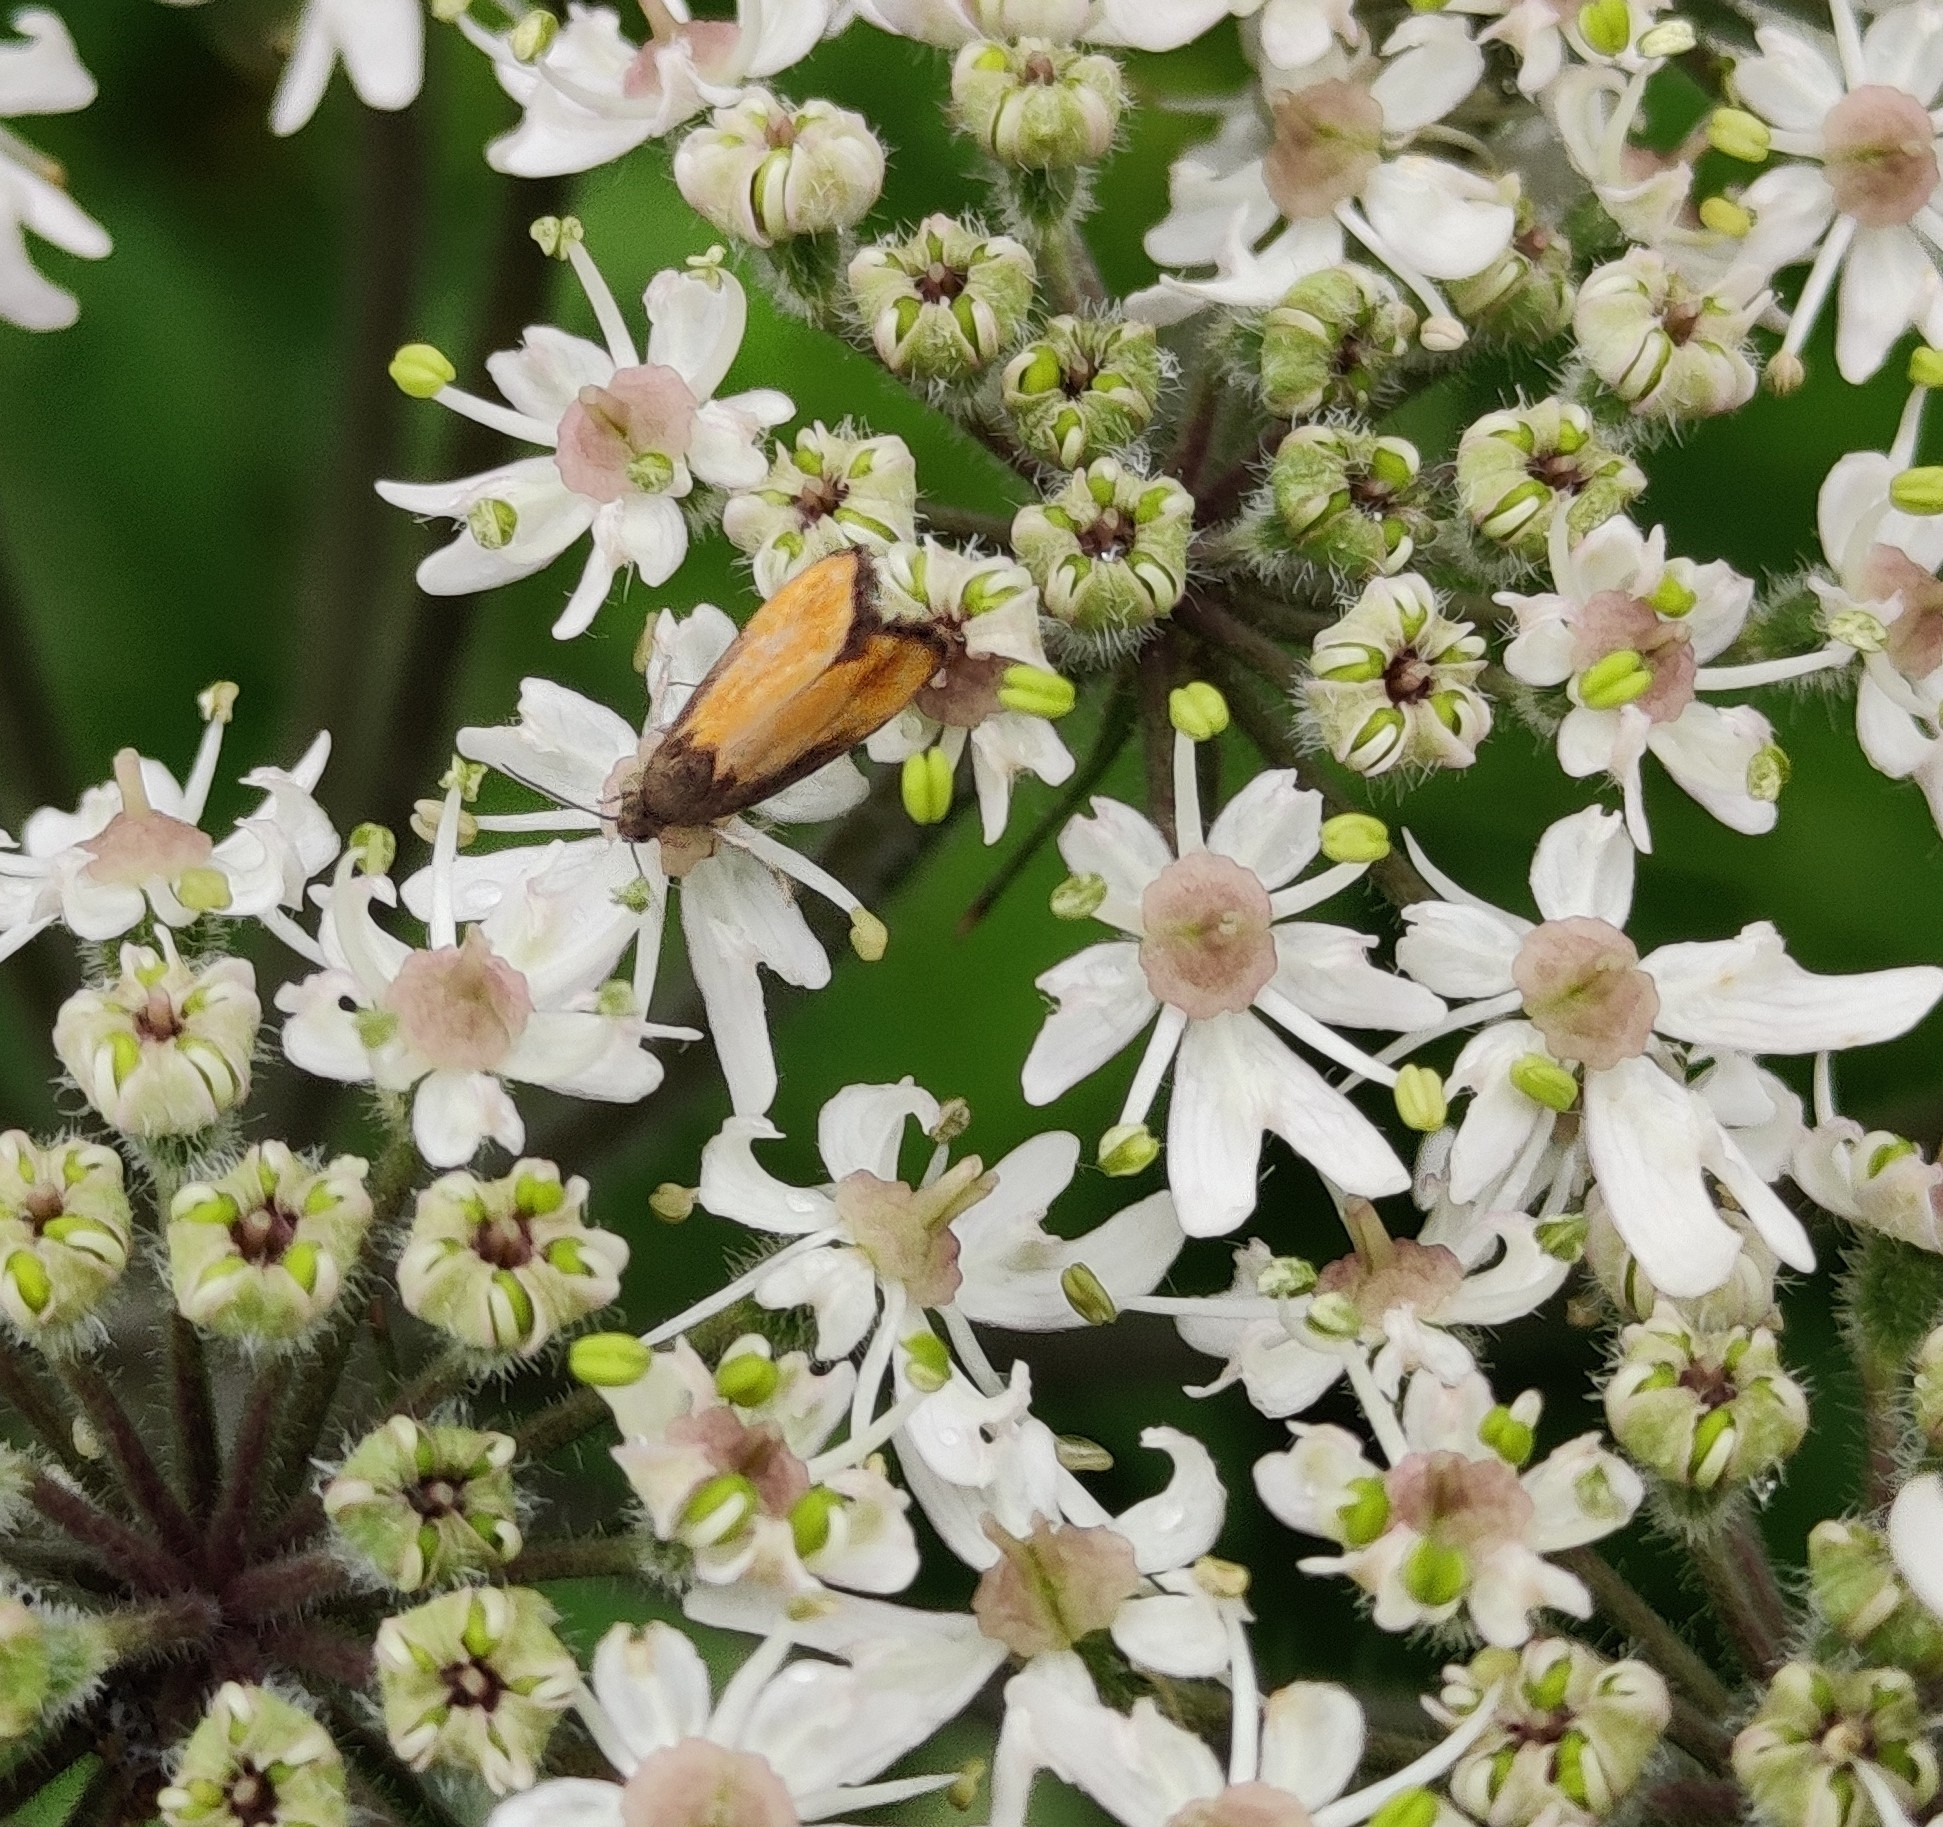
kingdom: Animalia
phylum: Arthropoda
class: Insecta
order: Lepidoptera
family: Tortricidae
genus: Pammene
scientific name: Pammene aurana
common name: Orange-spot piercer
